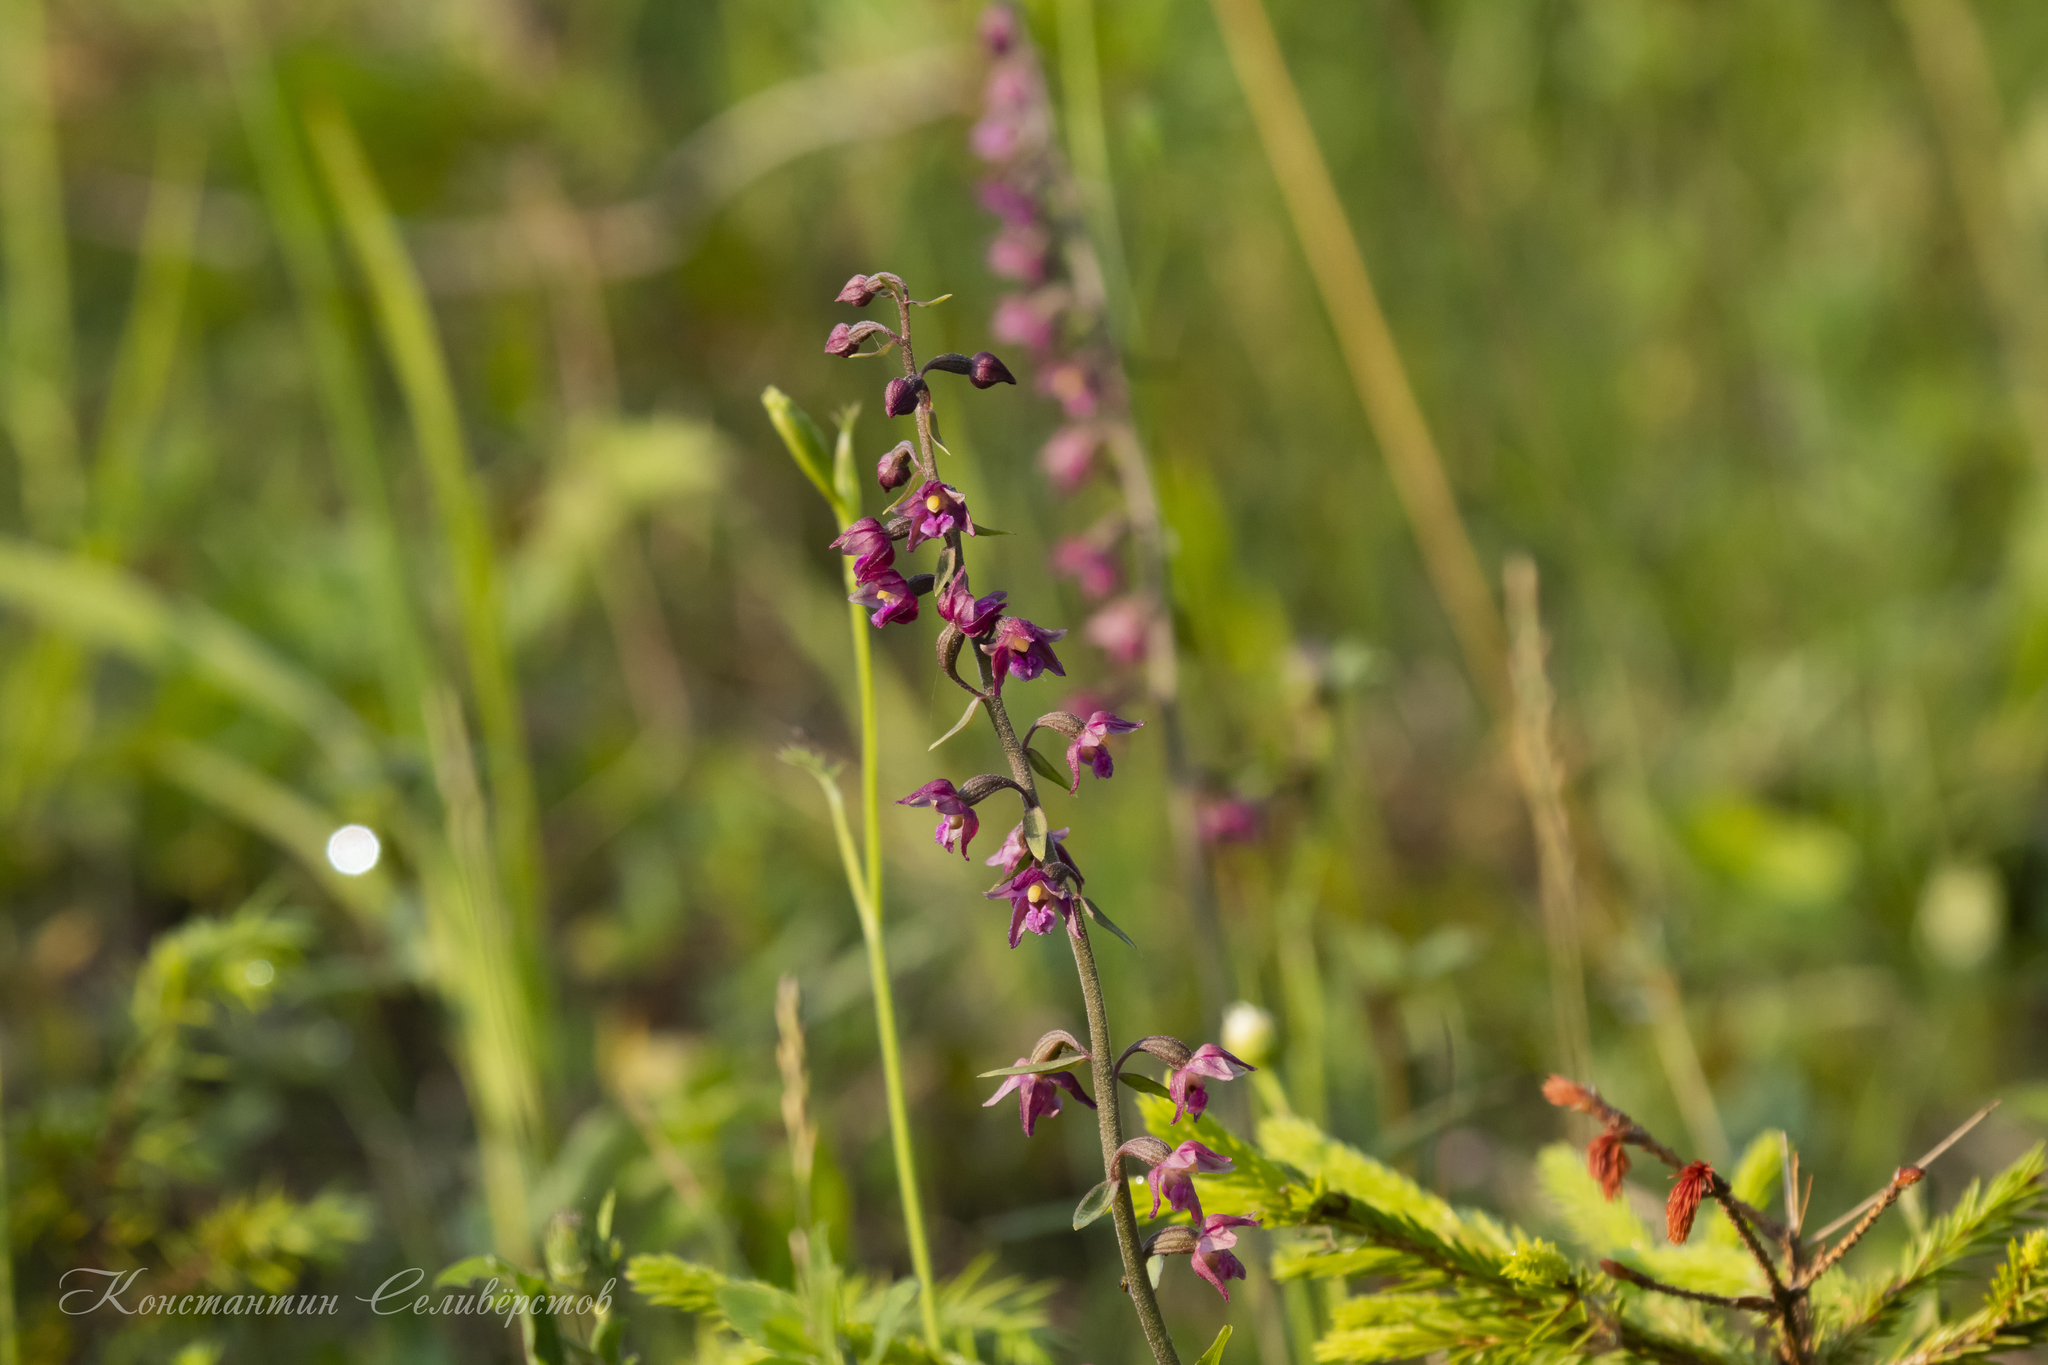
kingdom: Plantae
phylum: Tracheophyta
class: Liliopsida
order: Asparagales
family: Orchidaceae
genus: Epipactis
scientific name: Epipactis atrorubens
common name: Dark-red helleborine
